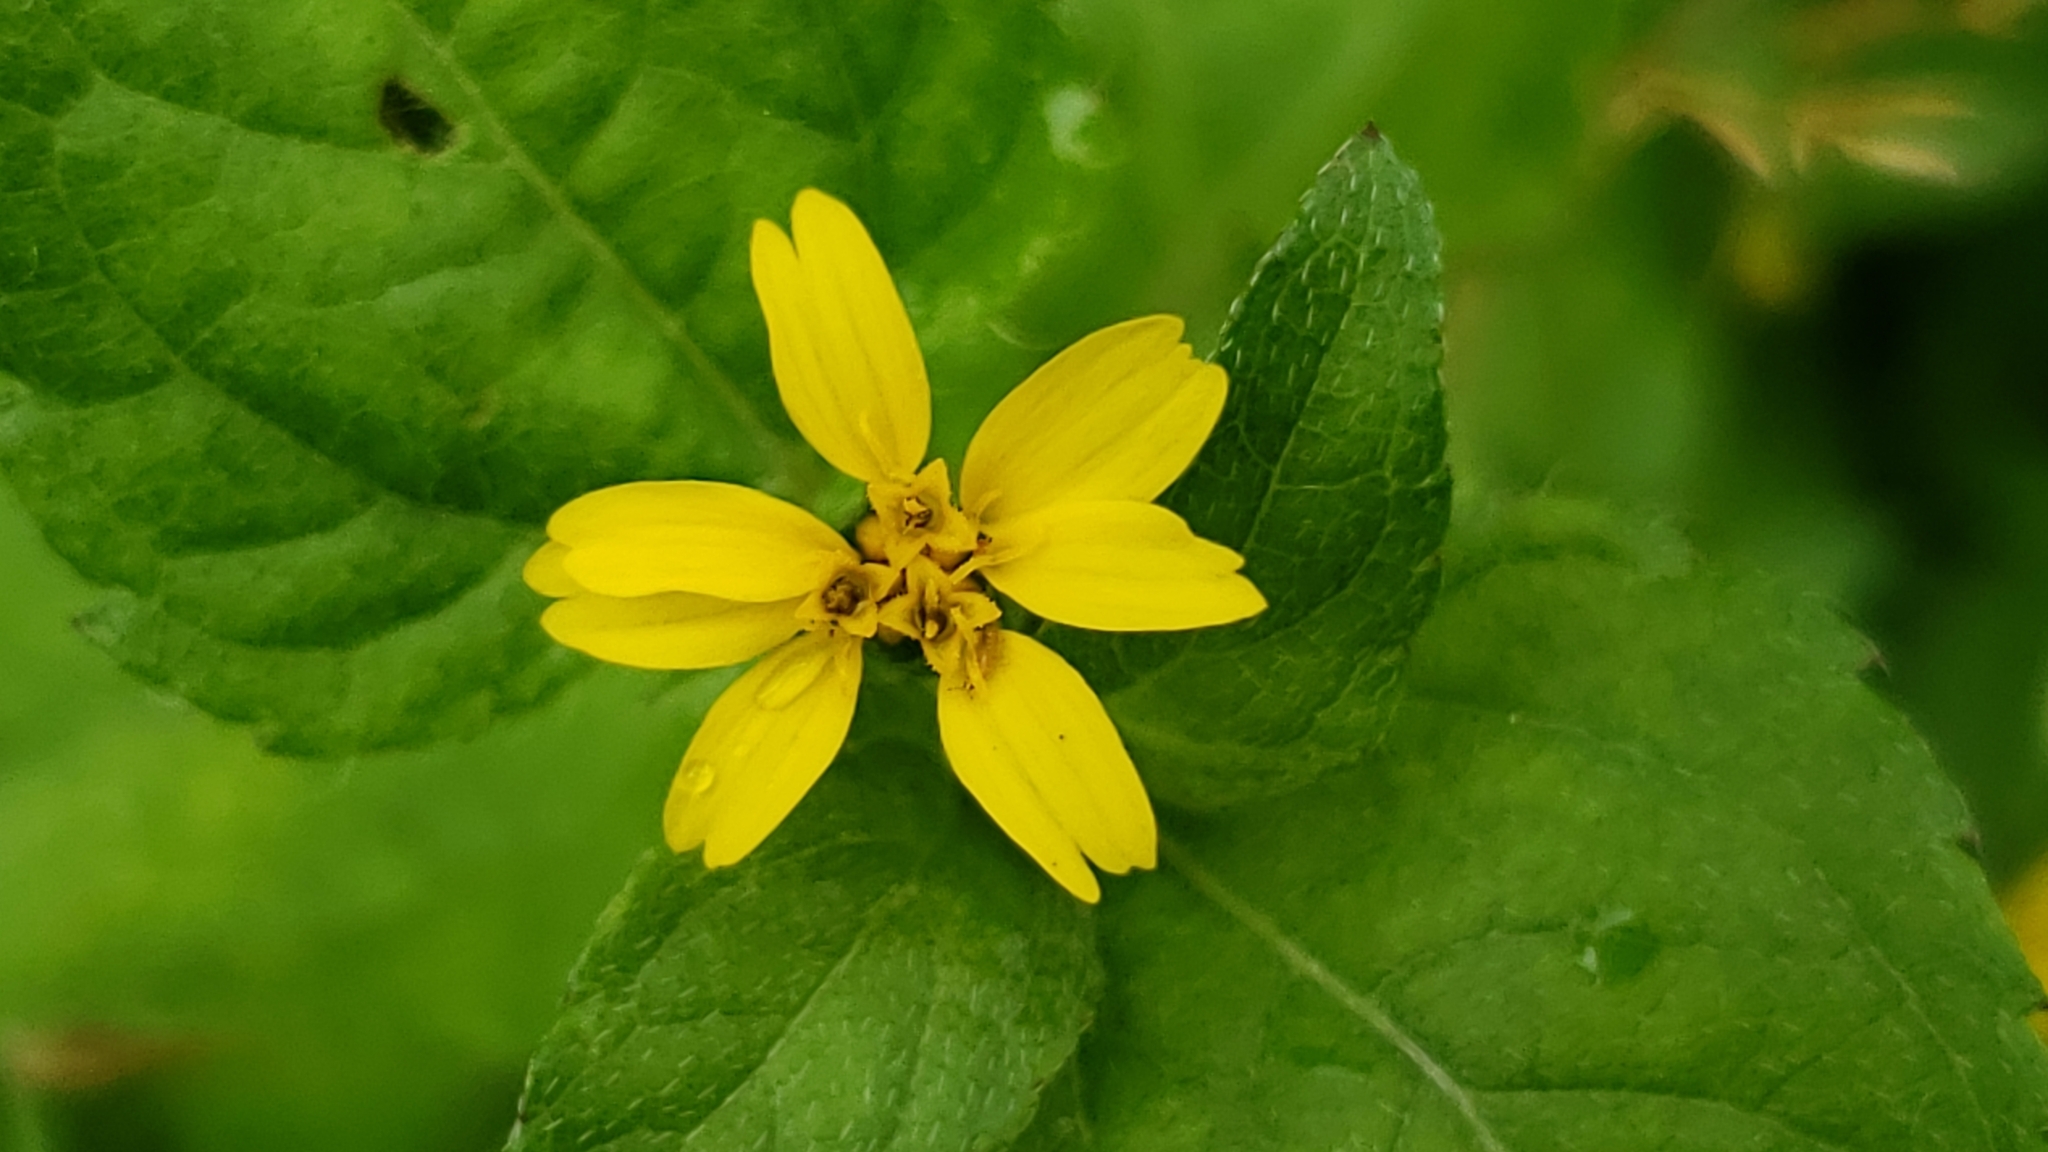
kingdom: Plantae
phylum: Tracheophyta
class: Magnoliopsida
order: Asterales
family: Asteraceae
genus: Calyptocarpus
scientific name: Calyptocarpus vialis
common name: Straggler daisy
